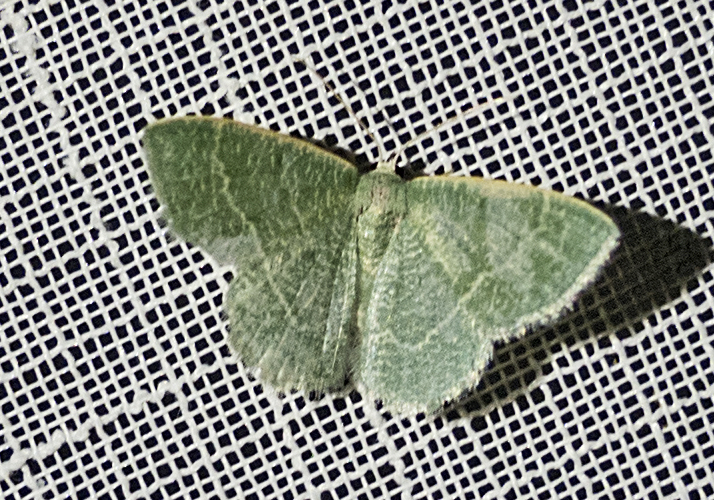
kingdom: Animalia
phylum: Arthropoda
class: Insecta
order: Lepidoptera
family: Geometridae
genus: Chlorissa
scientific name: Chlorissa etruscaria
